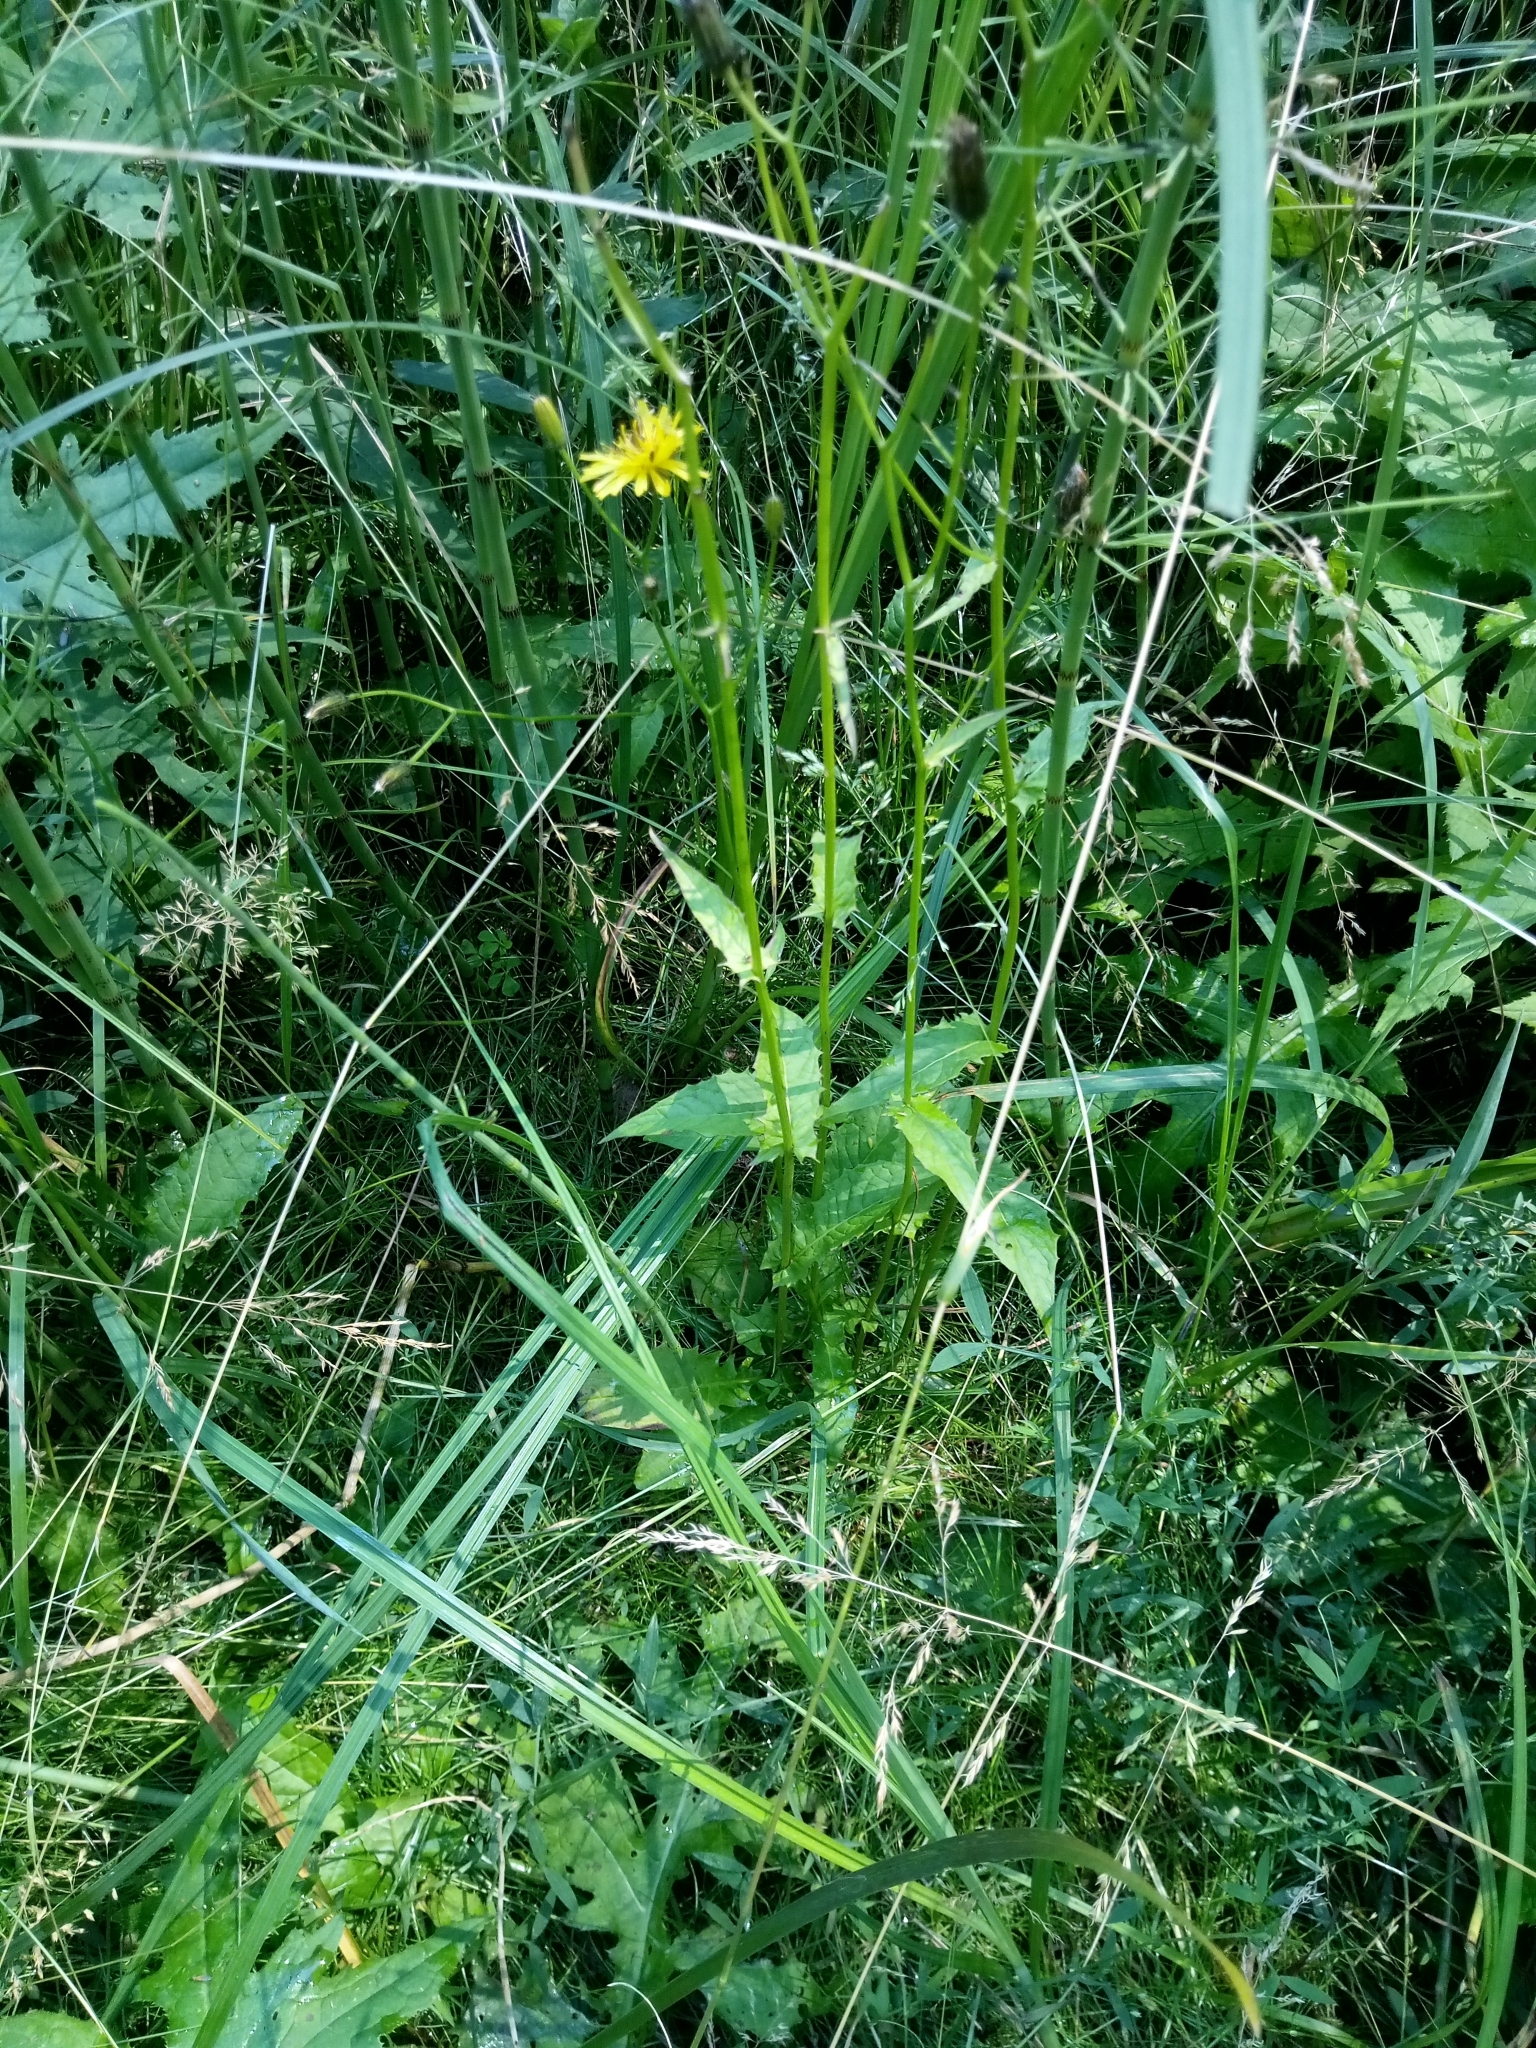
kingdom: Plantae
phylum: Tracheophyta
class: Magnoliopsida
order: Asterales
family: Asteraceae
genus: Crepis
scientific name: Crepis paludosa
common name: Marsh hawk's-beard
